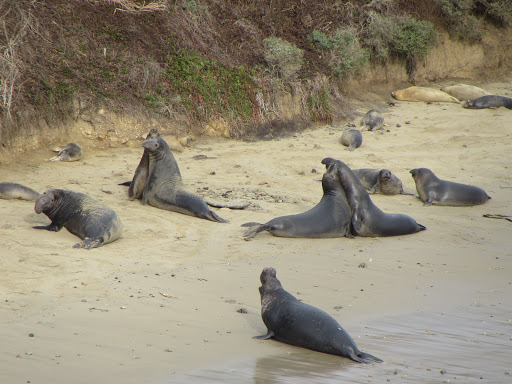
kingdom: Animalia
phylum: Chordata
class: Mammalia
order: Carnivora
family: Phocidae
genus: Mirounga
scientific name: Mirounga angustirostris
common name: Northern elephant seal
